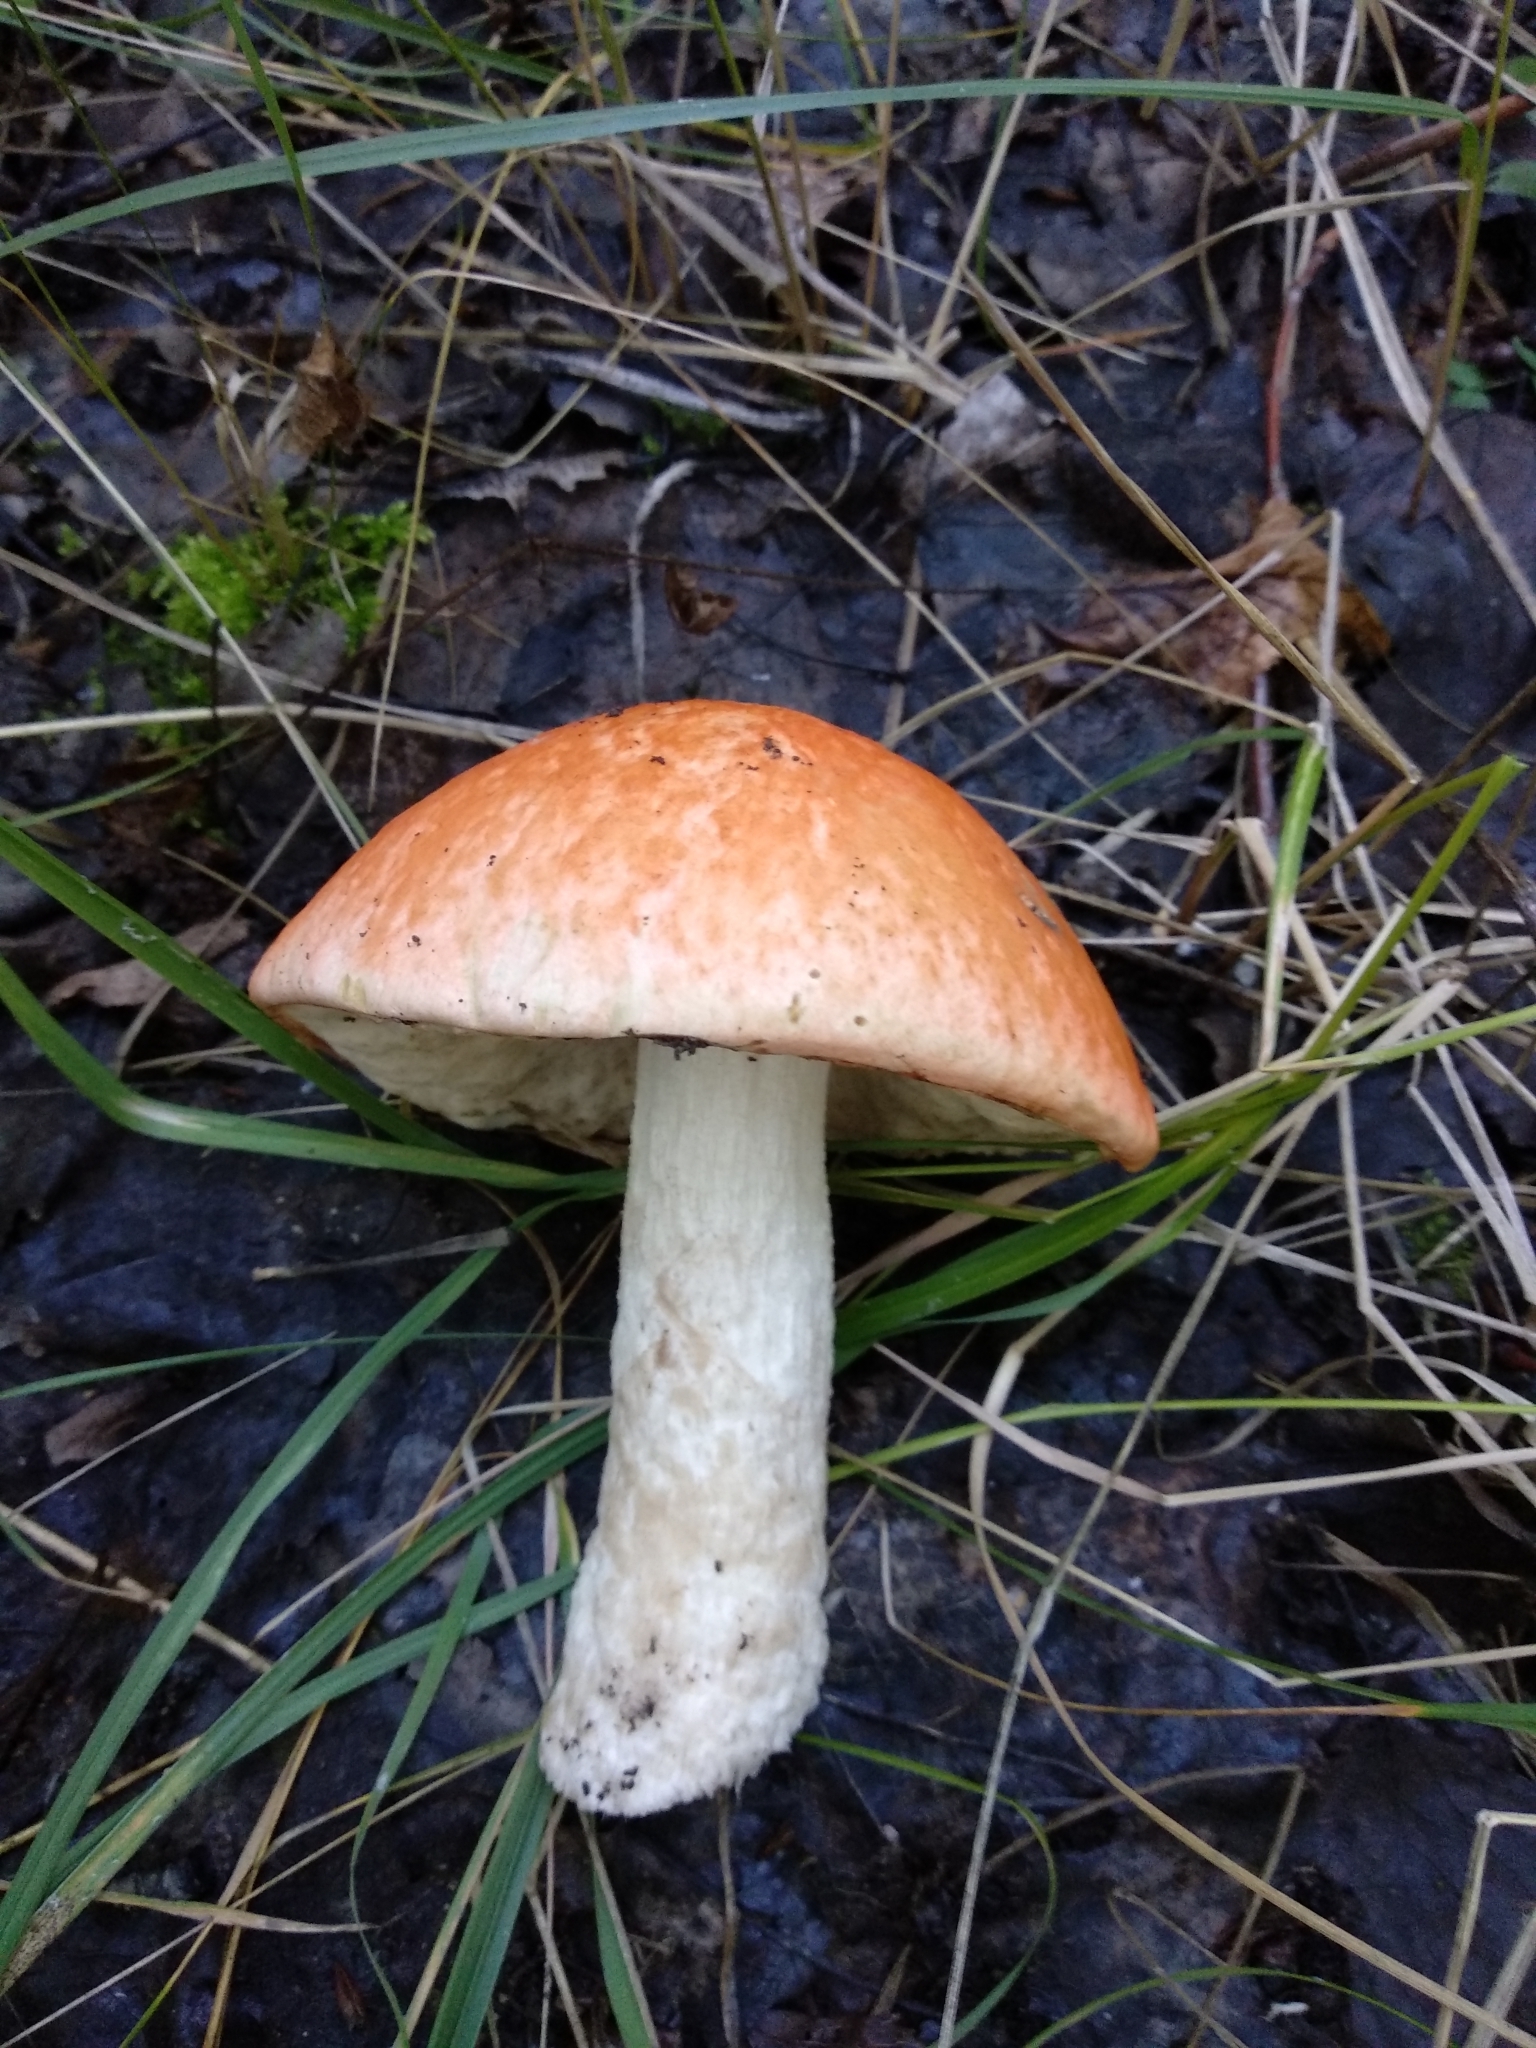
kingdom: Fungi
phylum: Basidiomycota
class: Agaricomycetes
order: Boletales
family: Boletaceae
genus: Leccinum
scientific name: Leccinum albostipitatum
